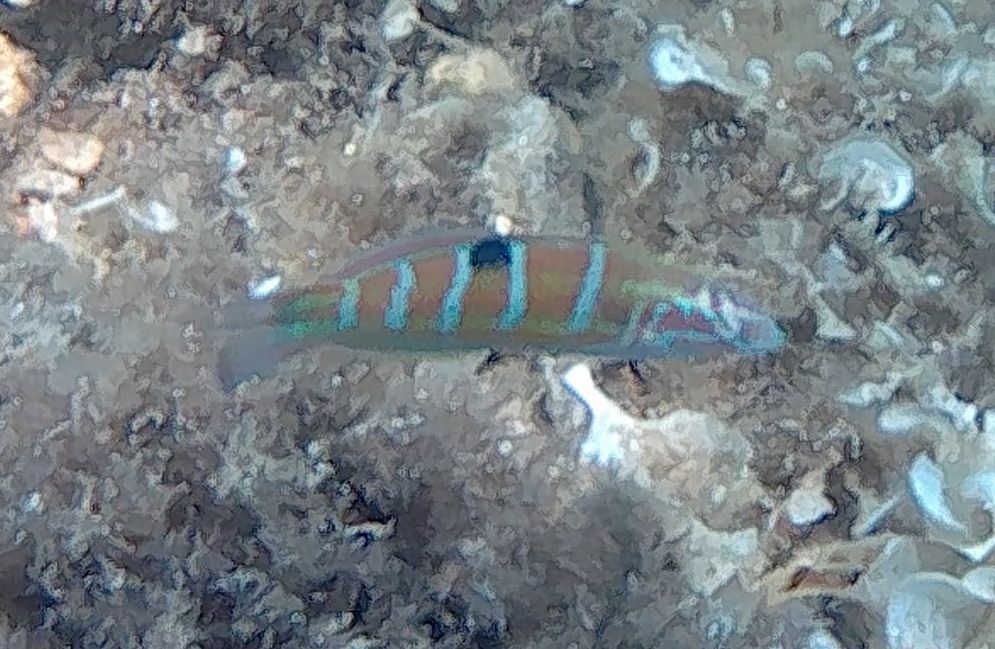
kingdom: Animalia
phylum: Chordata
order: Perciformes
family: Labridae
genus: Thalassoma
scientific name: Thalassoma pavo
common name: Ornate wrasse
